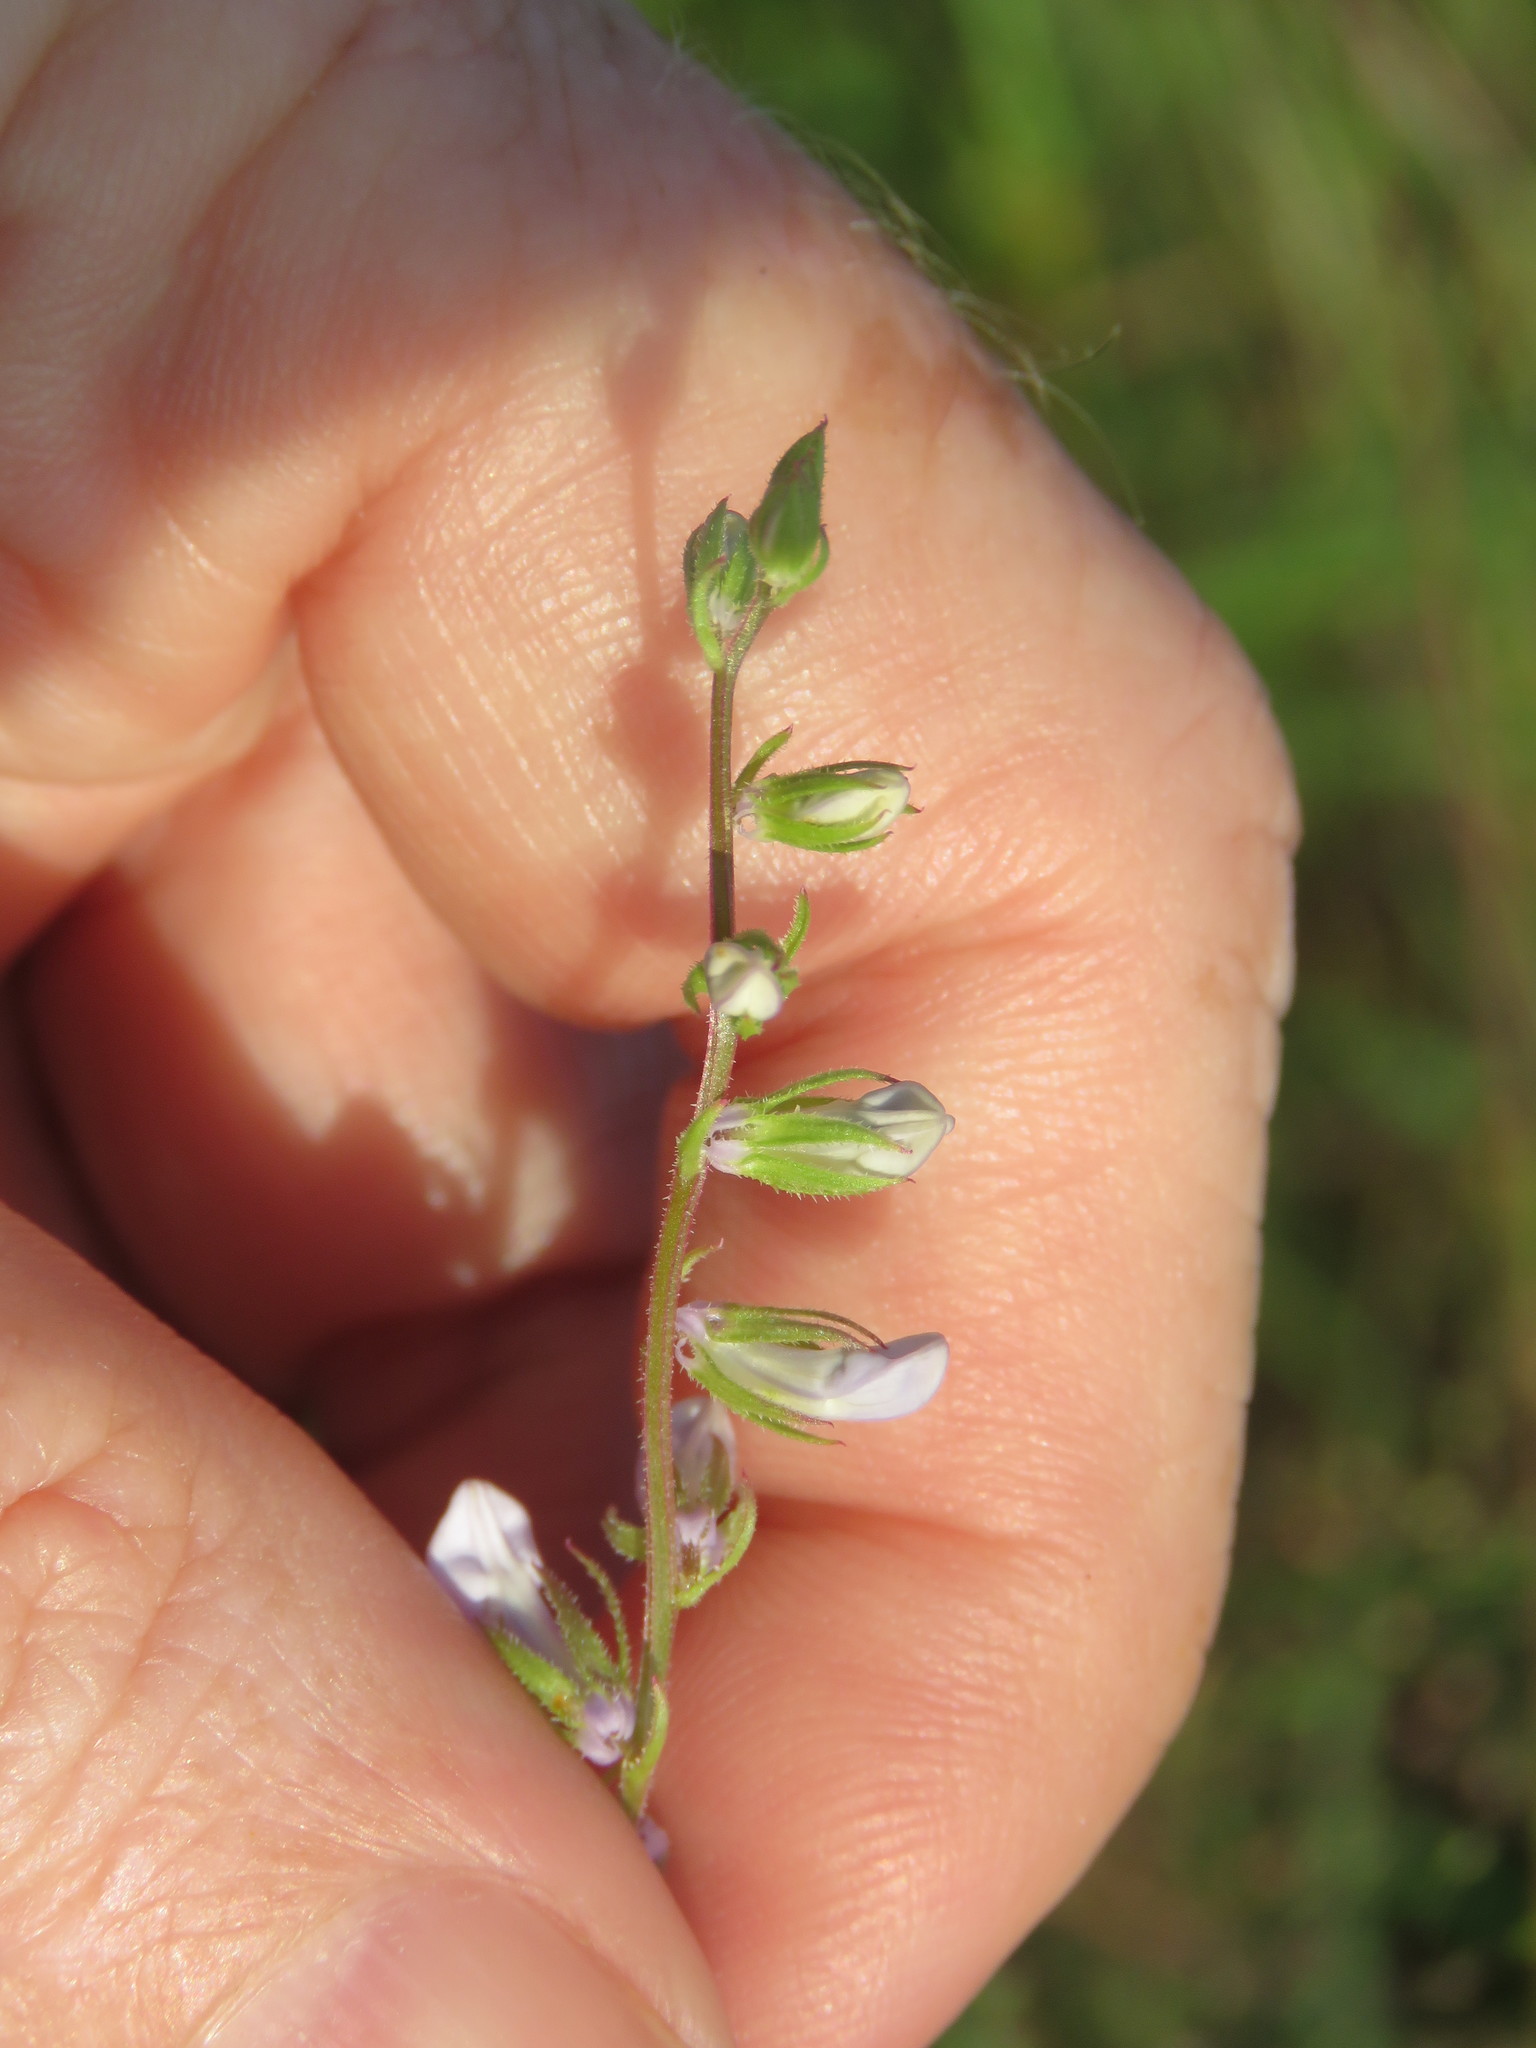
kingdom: Plantae
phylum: Tracheophyta
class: Magnoliopsida
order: Asterales
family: Campanulaceae
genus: Lobelia
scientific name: Lobelia appendiculata
